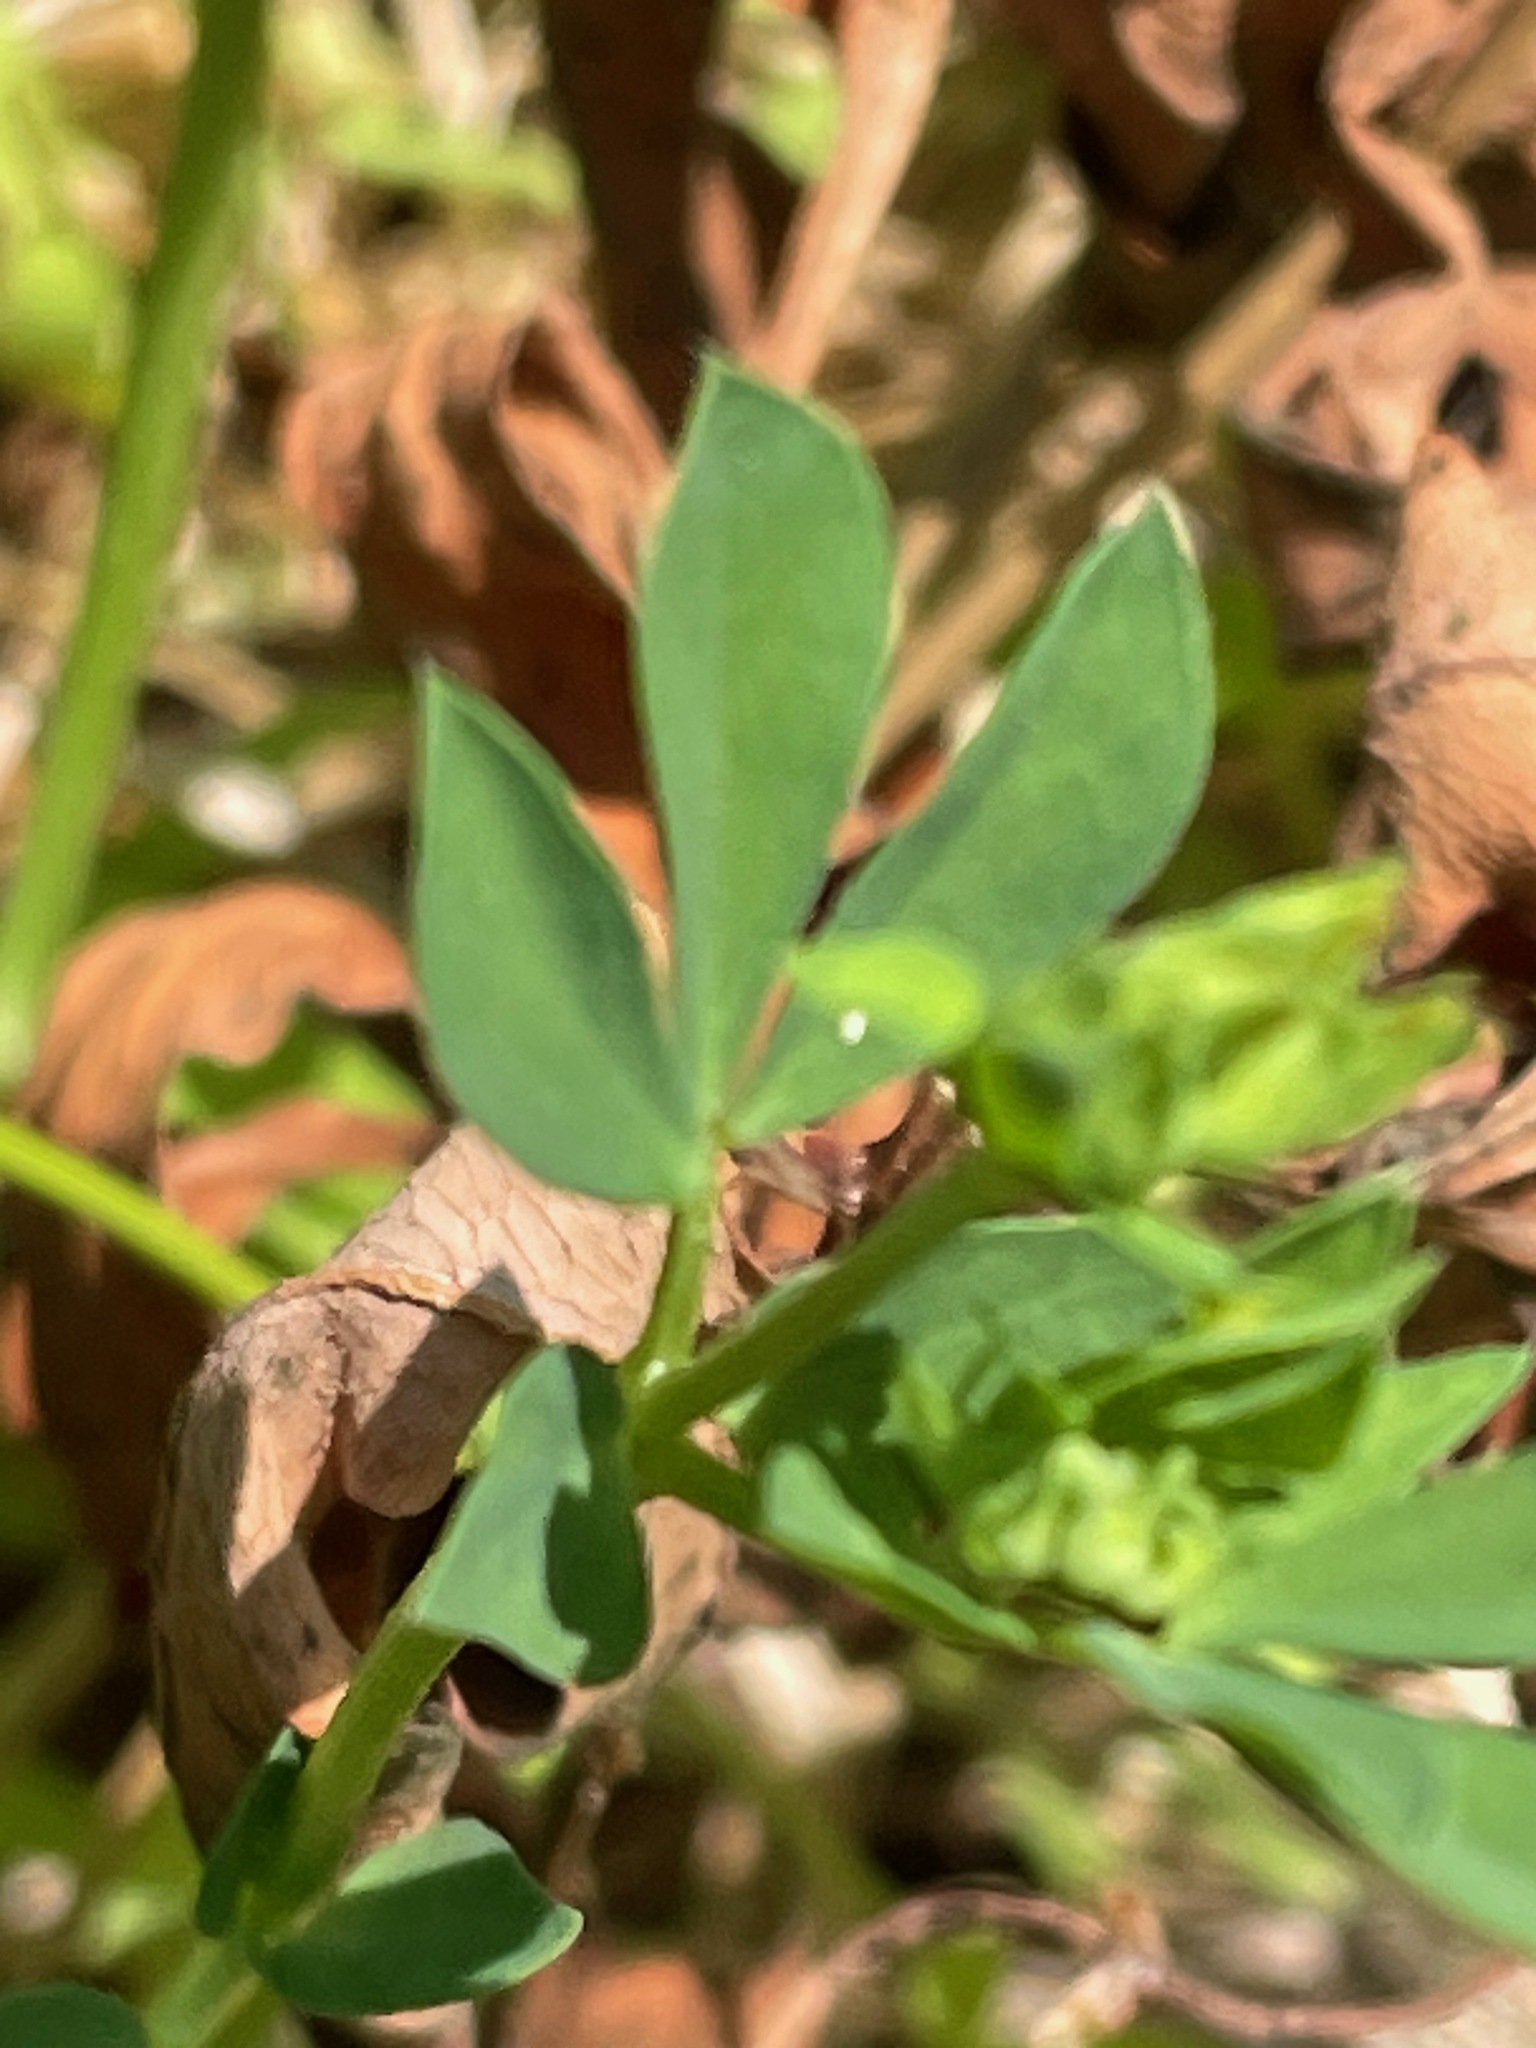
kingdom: Plantae
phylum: Tracheophyta
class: Magnoliopsida
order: Fabales
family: Fabaceae
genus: Lotus
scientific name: Lotus corniculatus
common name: Common bird's-foot-trefoil
